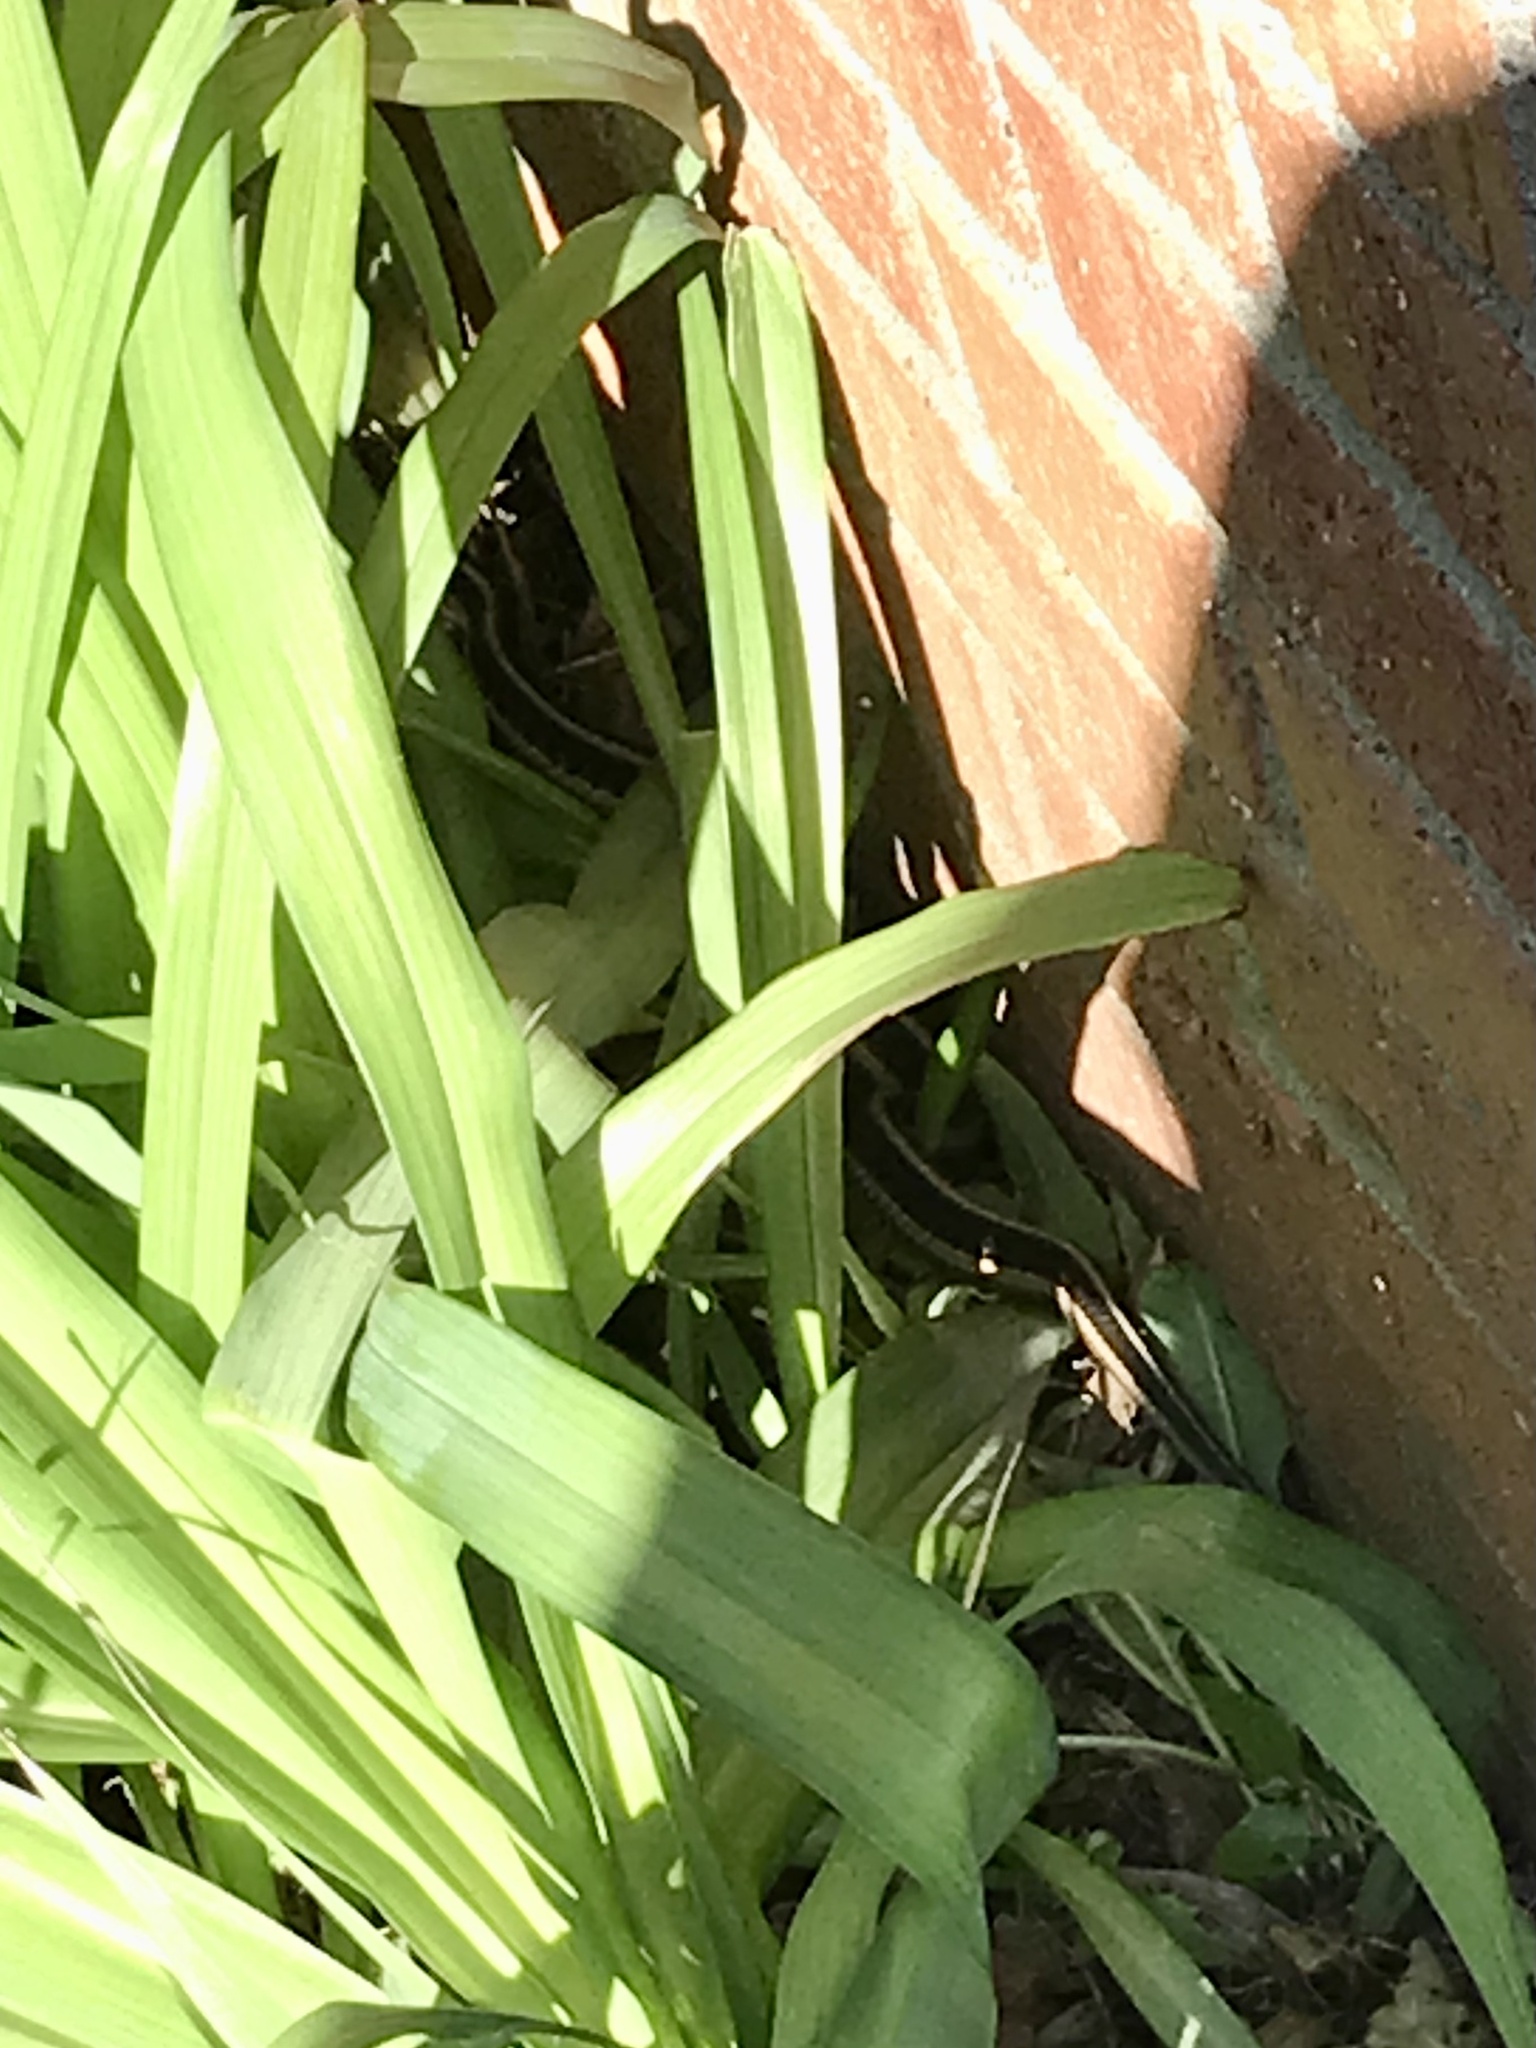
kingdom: Animalia
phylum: Chordata
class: Squamata
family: Colubridae
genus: Thamnophis
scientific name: Thamnophis sirtalis
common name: Common garter snake
